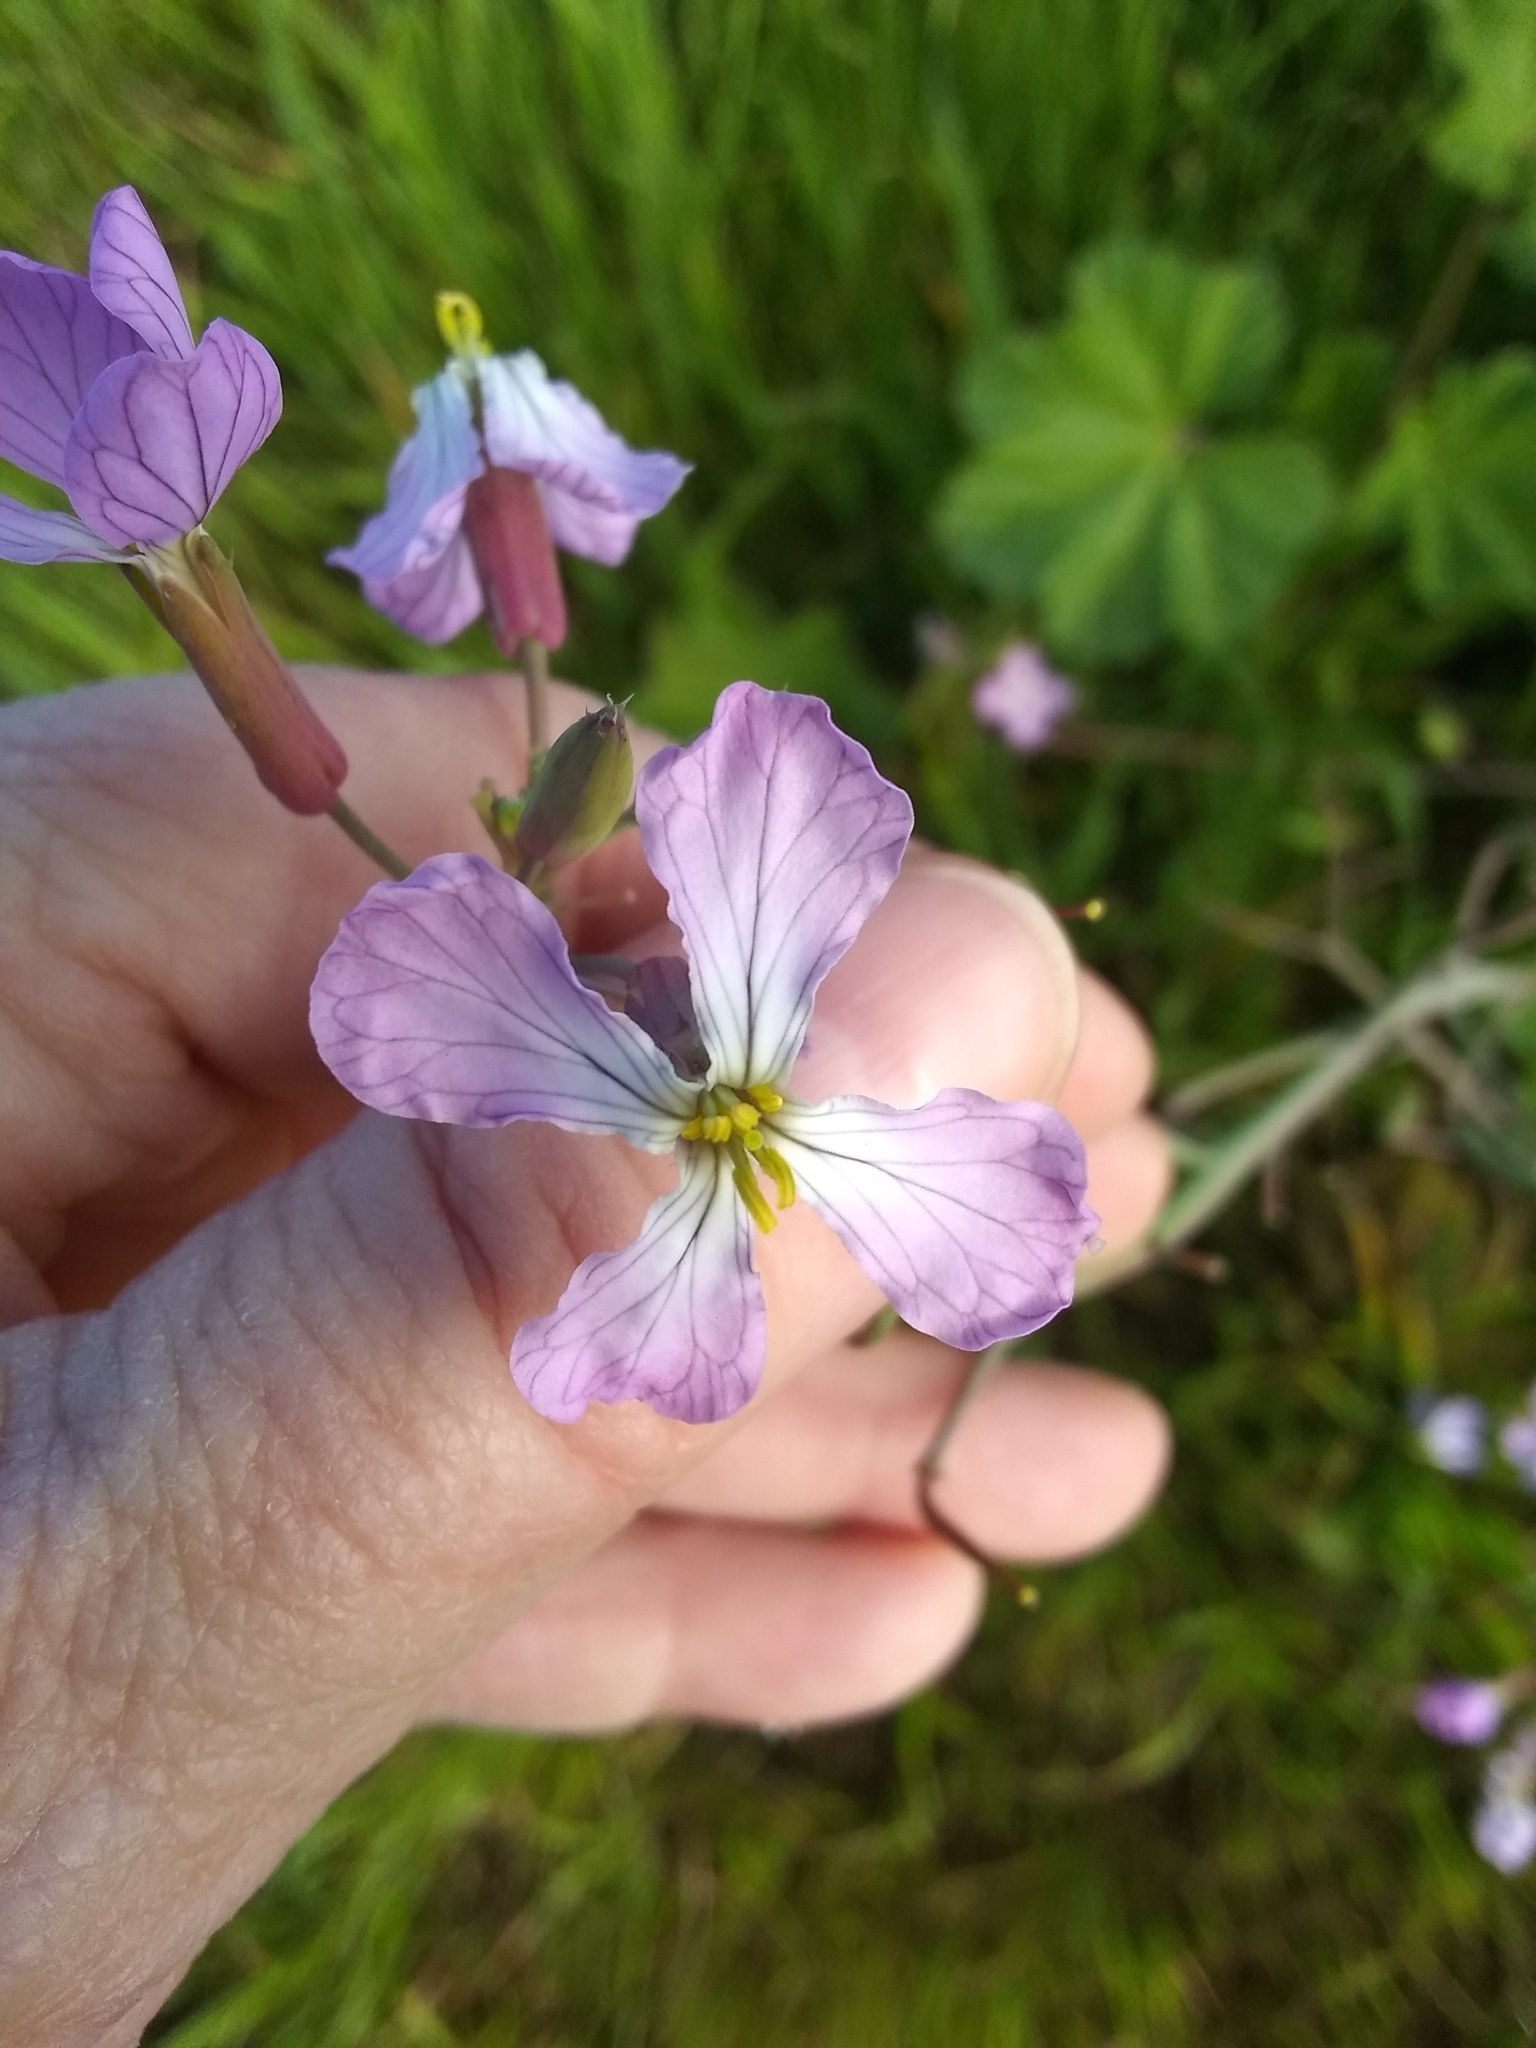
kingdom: Plantae
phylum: Tracheophyta
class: Magnoliopsida
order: Brassicales
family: Brassicaceae
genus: Raphanus
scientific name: Raphanus sativus
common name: Cultivated radish
